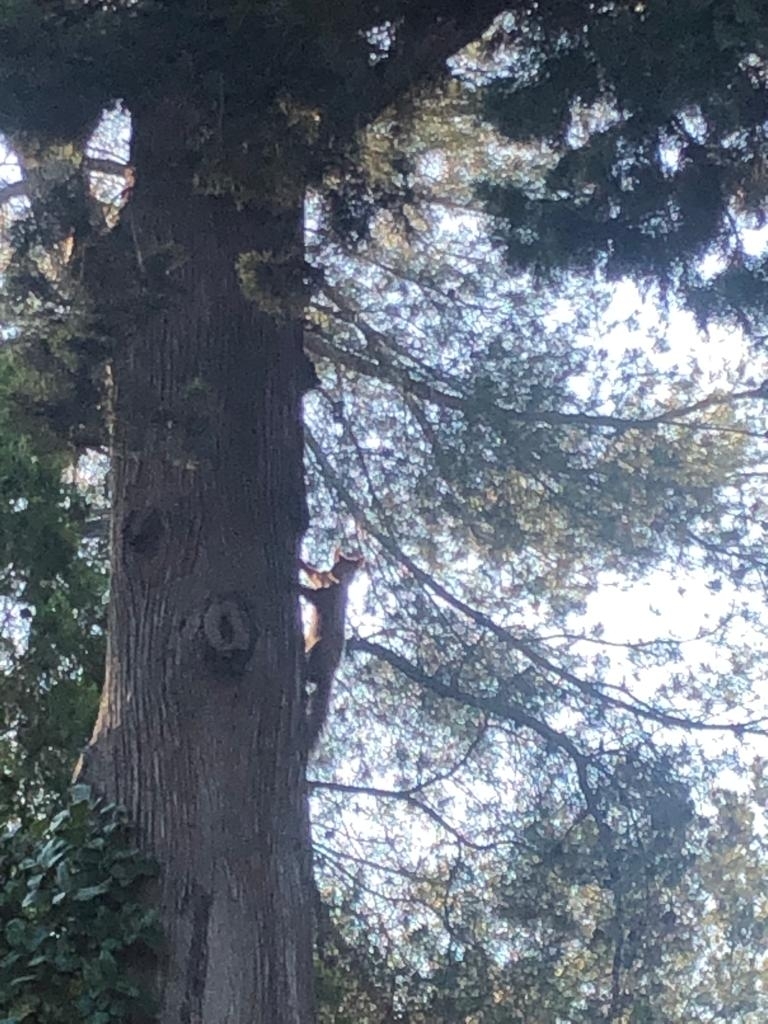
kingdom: Animalia
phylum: Chordata
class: Mammalia
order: Rodentia
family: Sciuridae
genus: Sciurus
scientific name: Sciurus vulgaris
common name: Eurasian red squirrel
